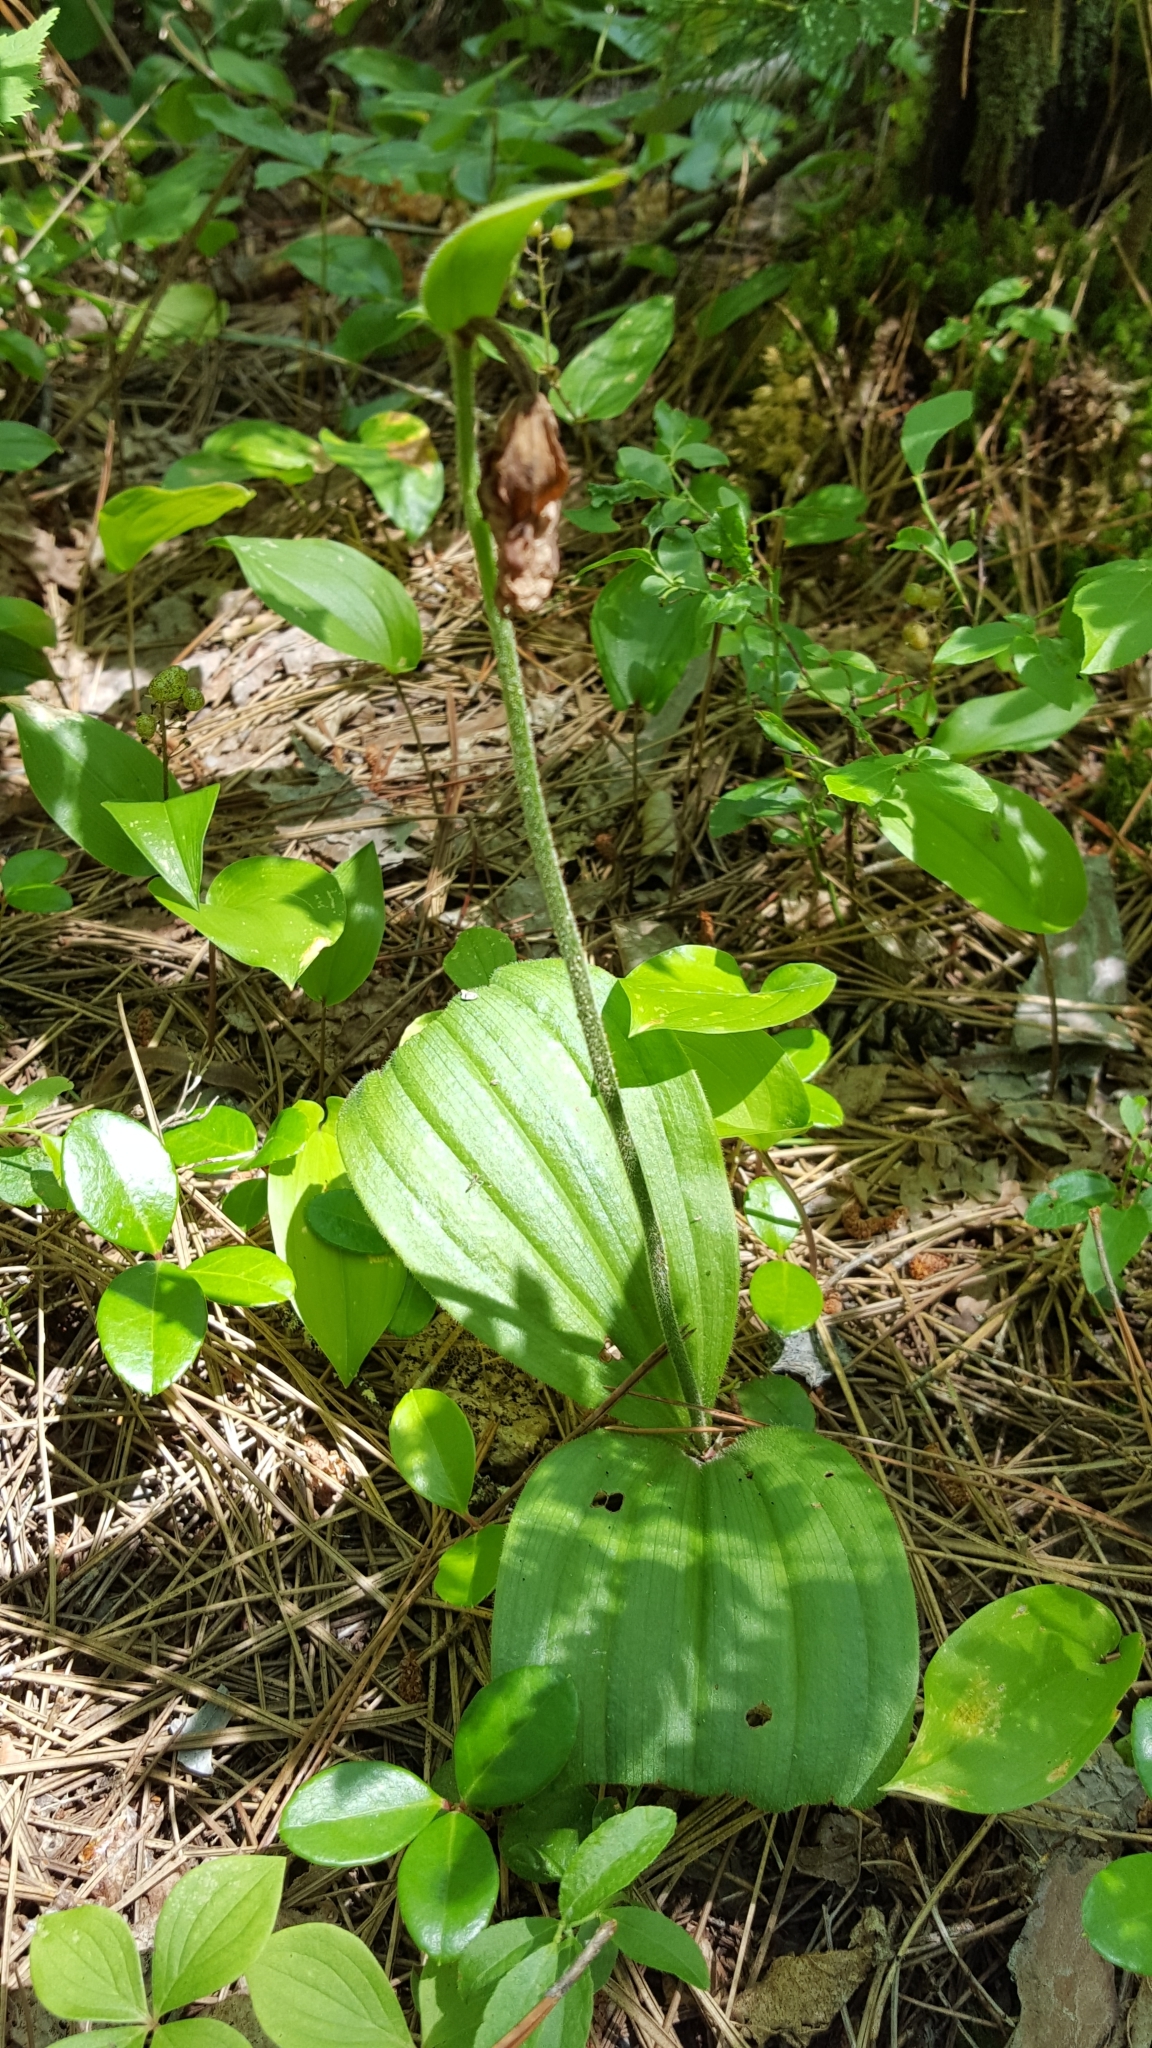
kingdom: Plantae
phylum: Tracheophyta
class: Liliopsida
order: Asparagales
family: Orchidaceae
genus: Cypripedium
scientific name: Cypripedium acaule
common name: Pink lady's-slipper
